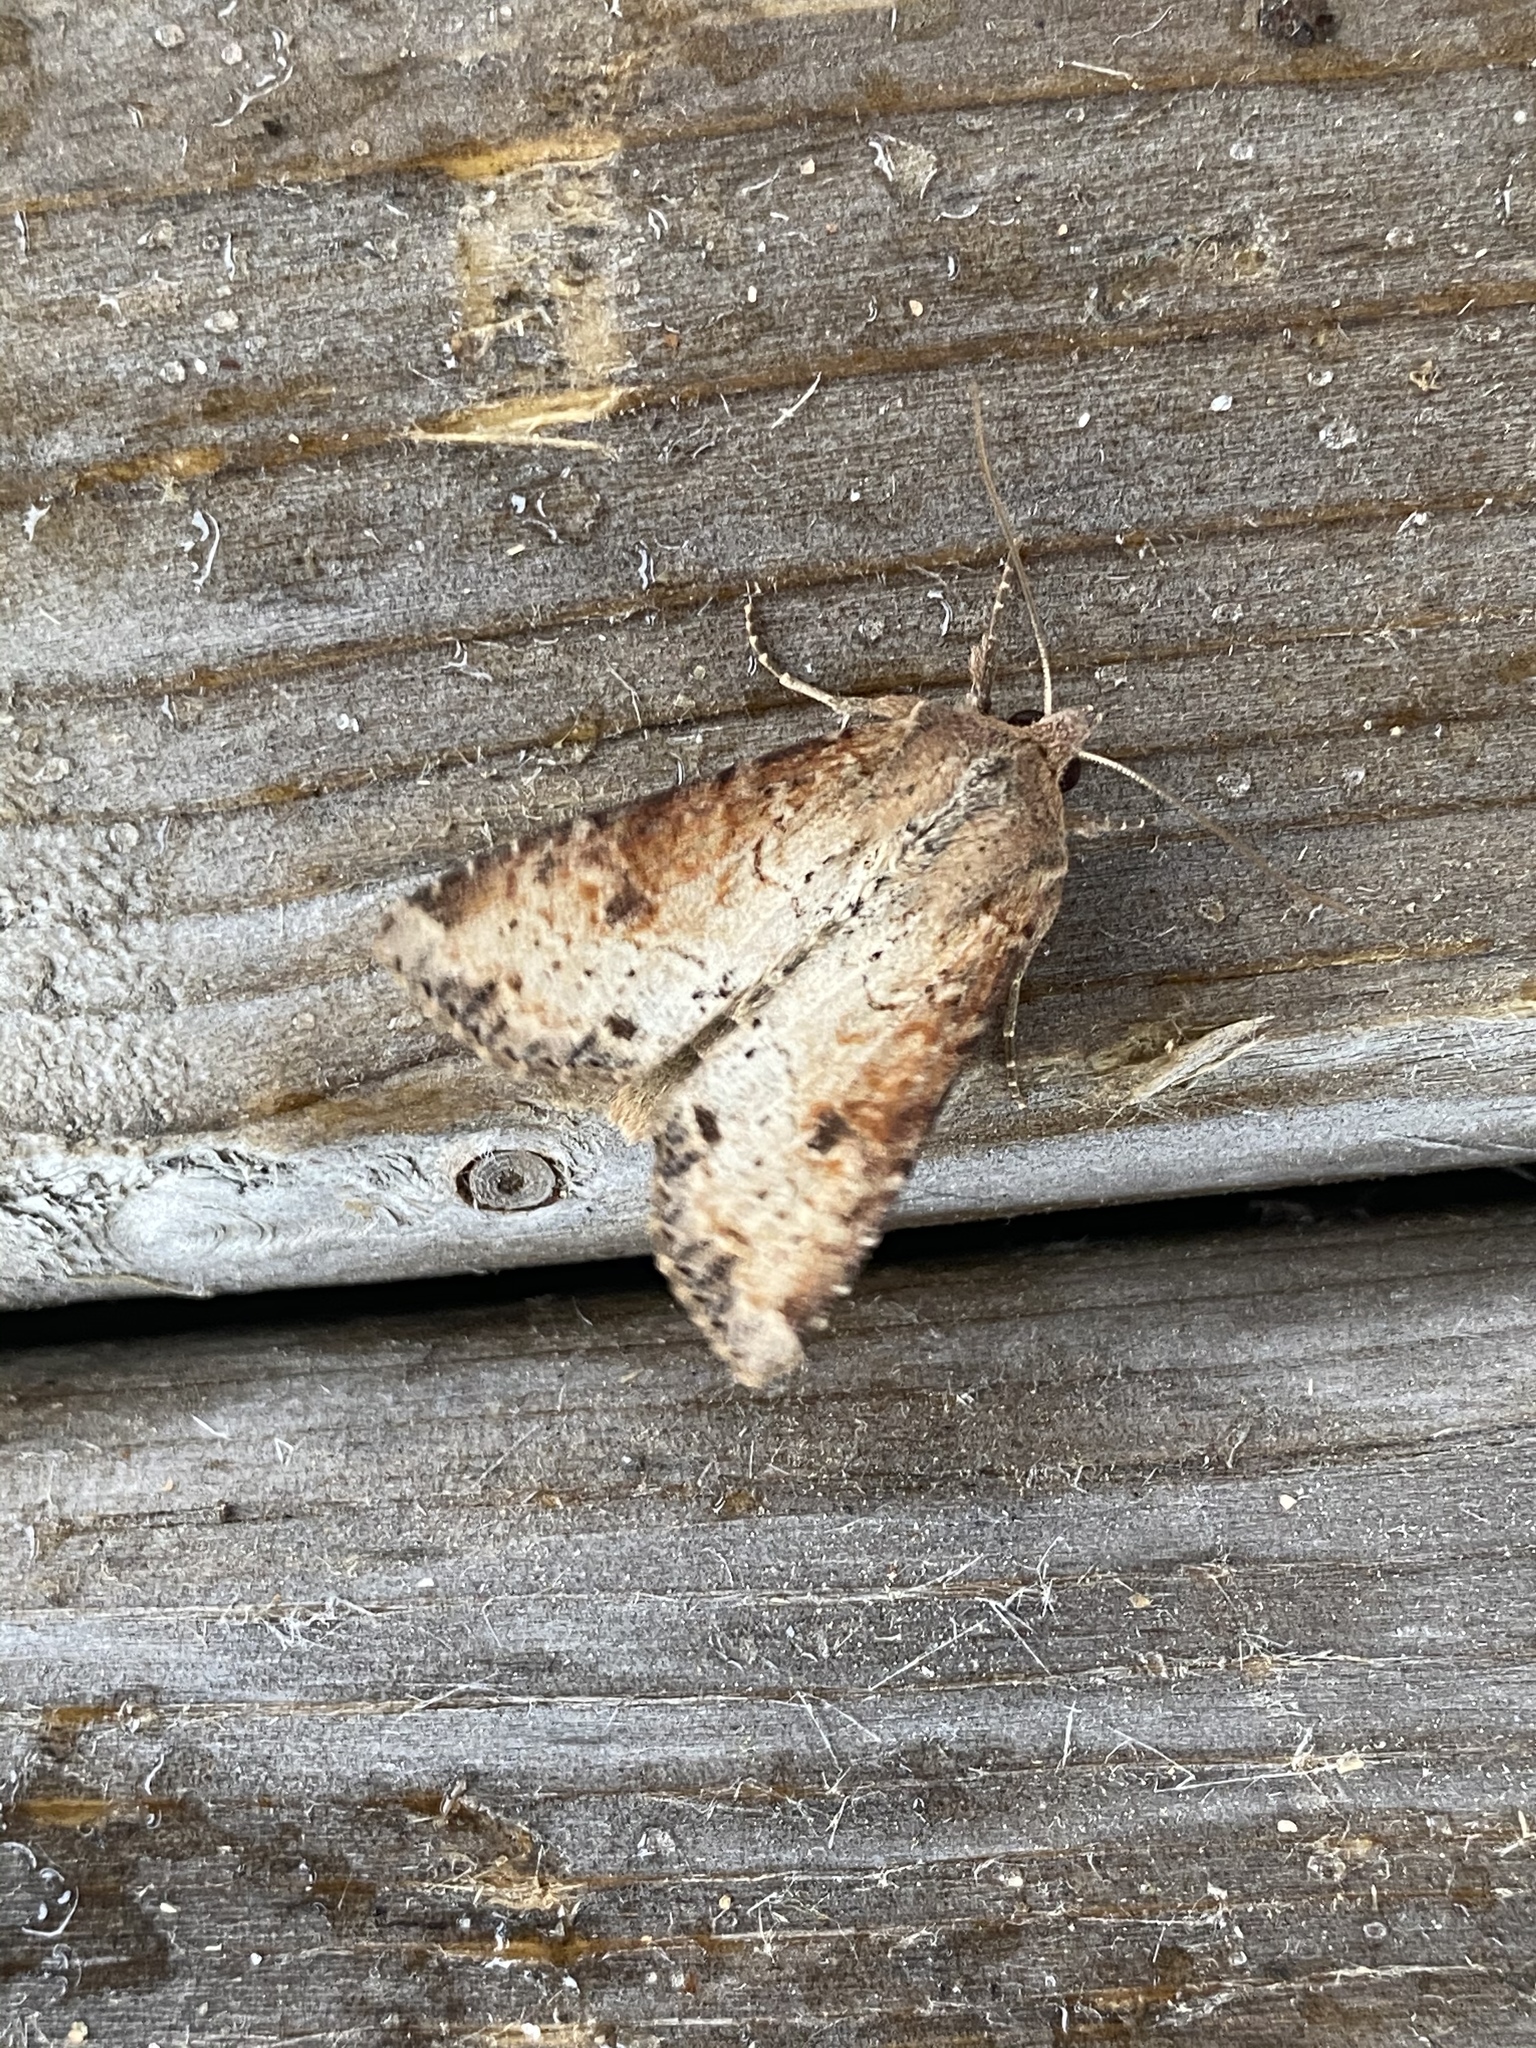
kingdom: Animalia
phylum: Arthropoda
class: Insecta
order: Lepidoptera
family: Noctuidae
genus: Apamea
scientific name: Apamea alia
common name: Fox apamea
